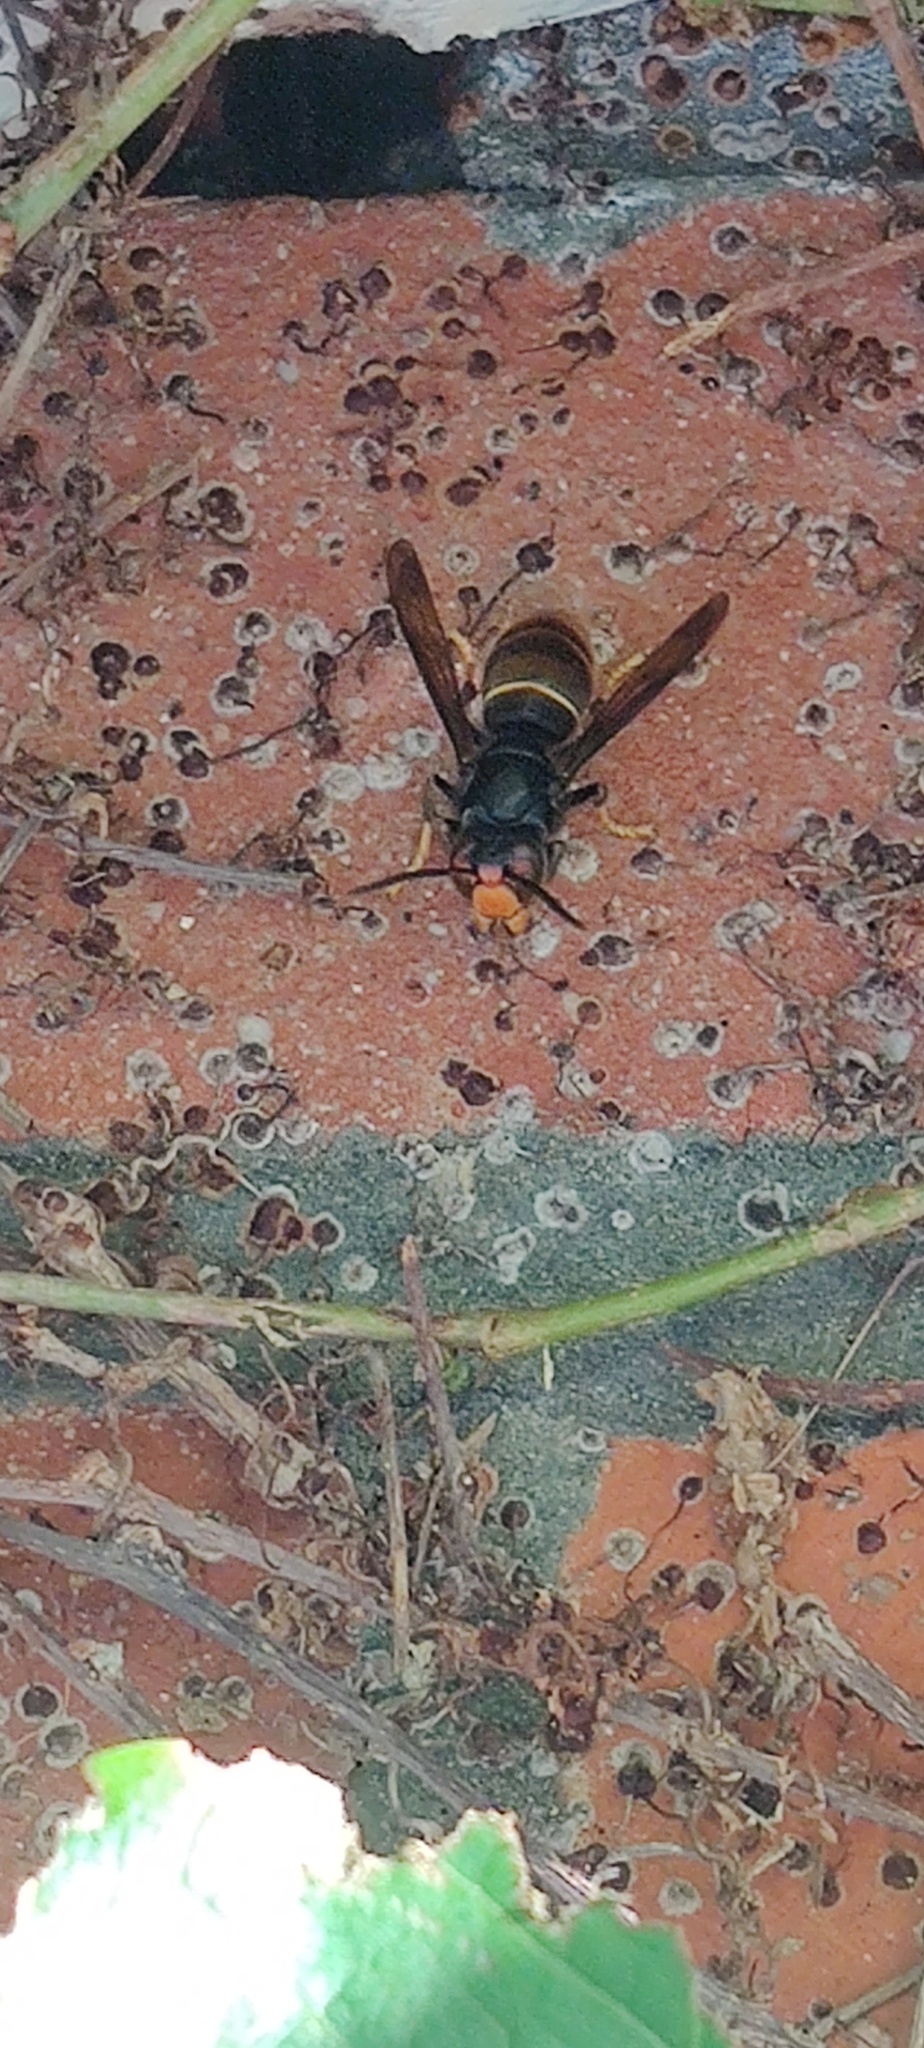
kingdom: Animalia
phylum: Arthropoda
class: Insecta
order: Hymenoptera
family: Vespidae
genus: Vespa
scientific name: Vespa velutina
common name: Asian hornet
